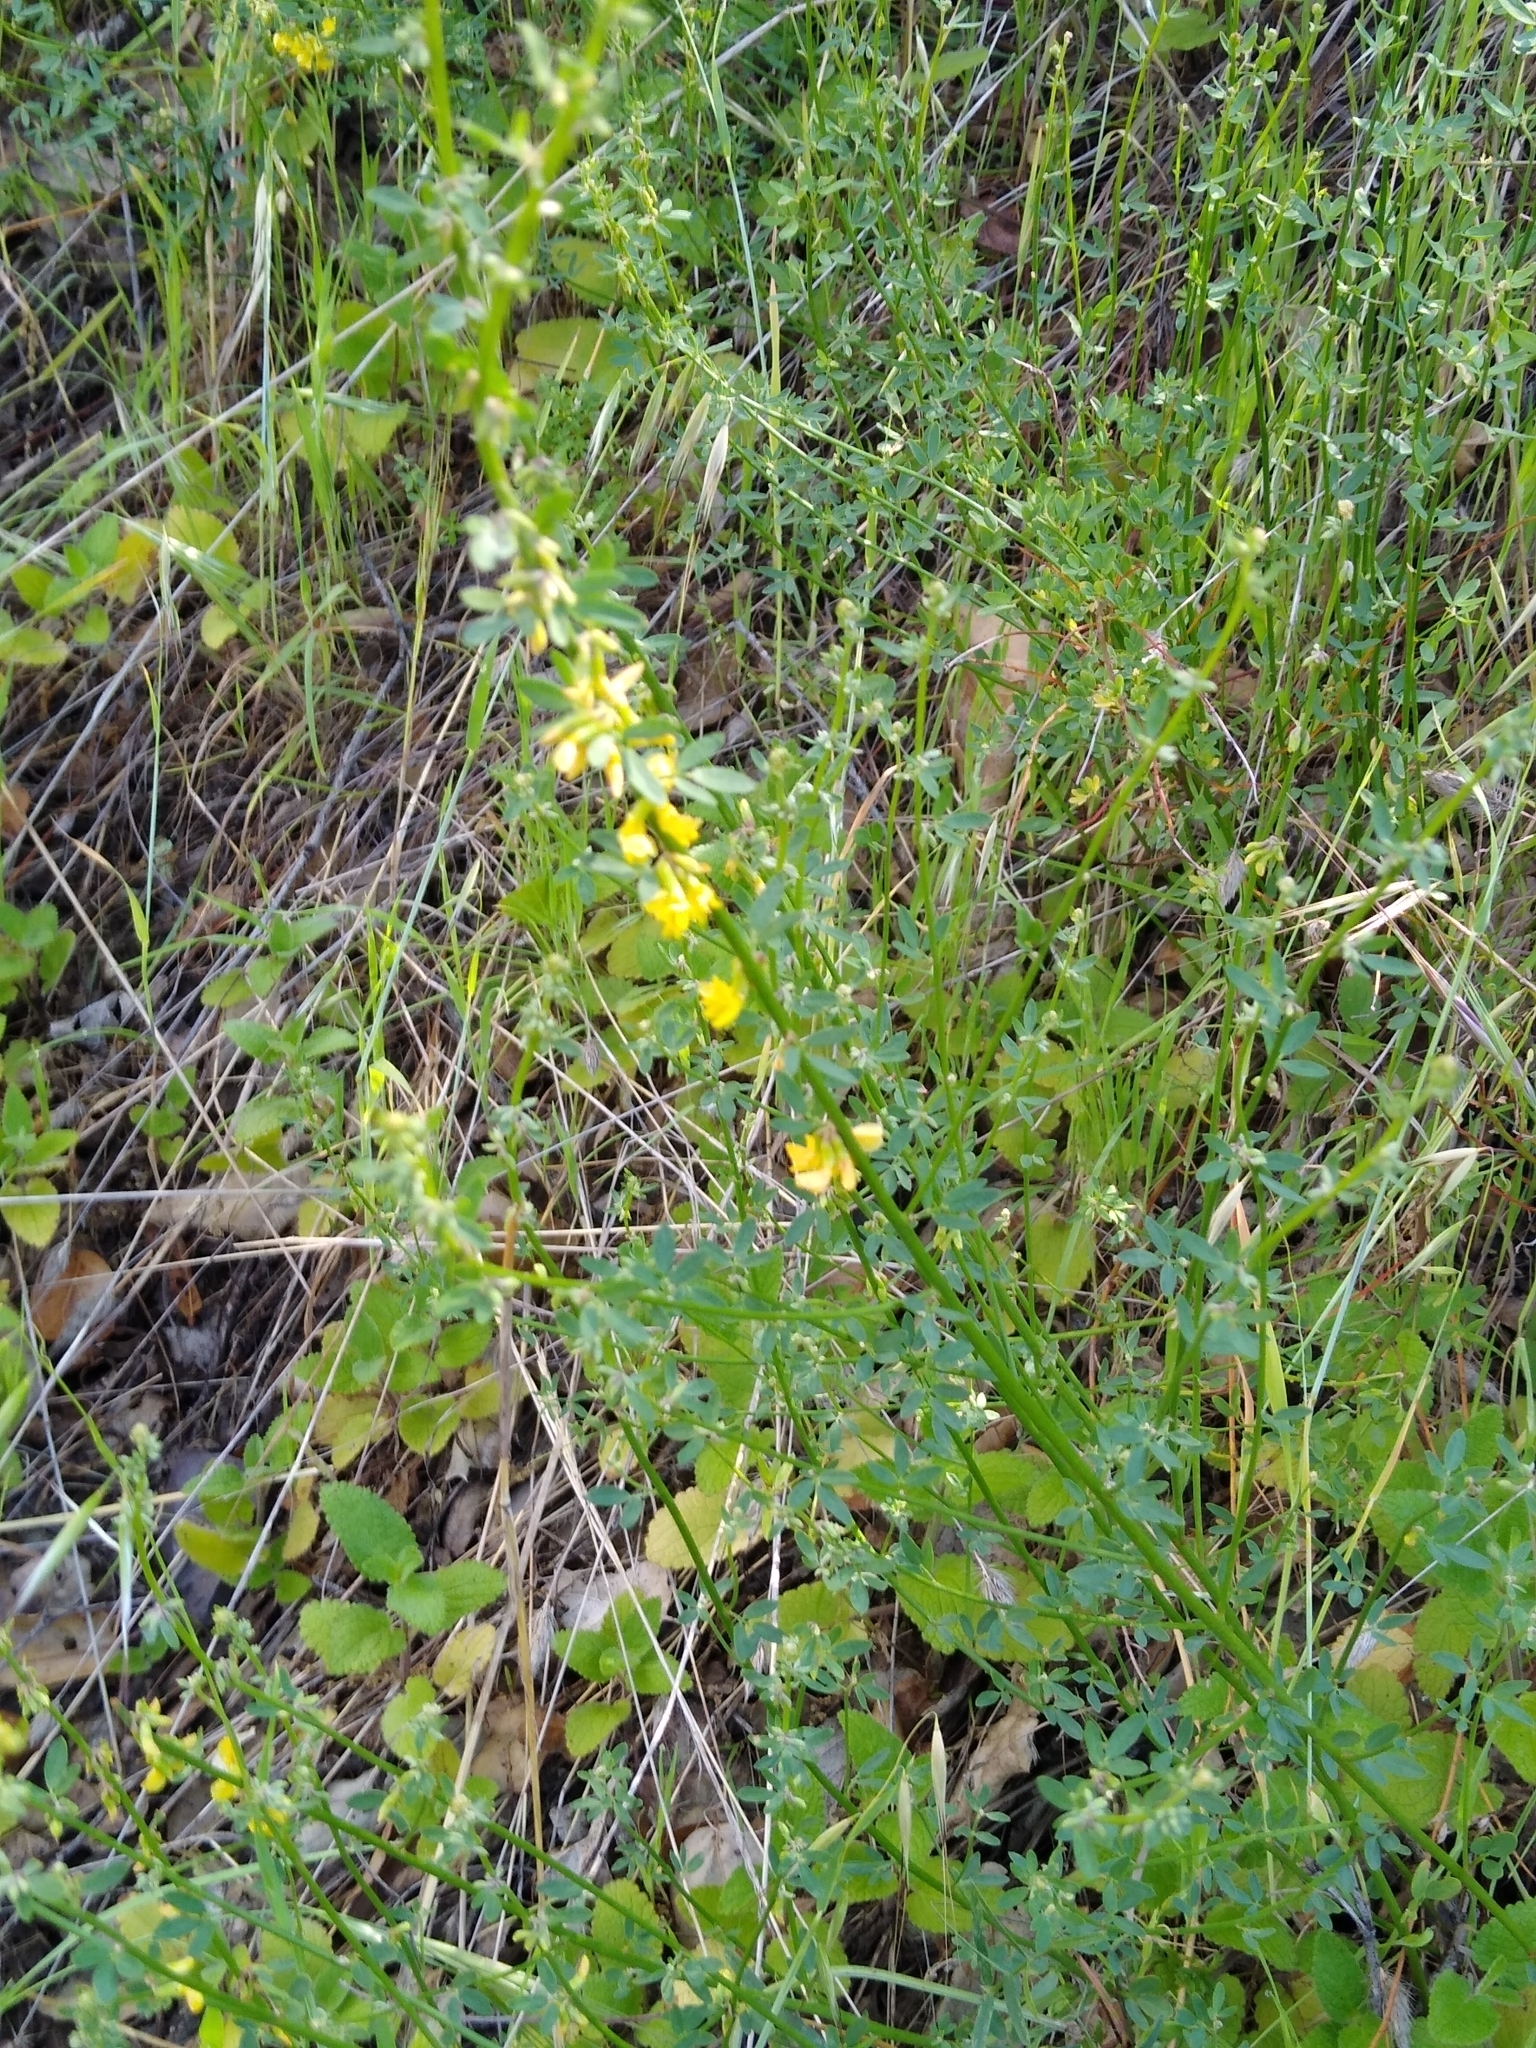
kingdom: Plantae
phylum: Tracheophyta
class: Magnoliopsida
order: Fabales
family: Fabaceae
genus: Acmispon
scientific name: Acmispon glaber
